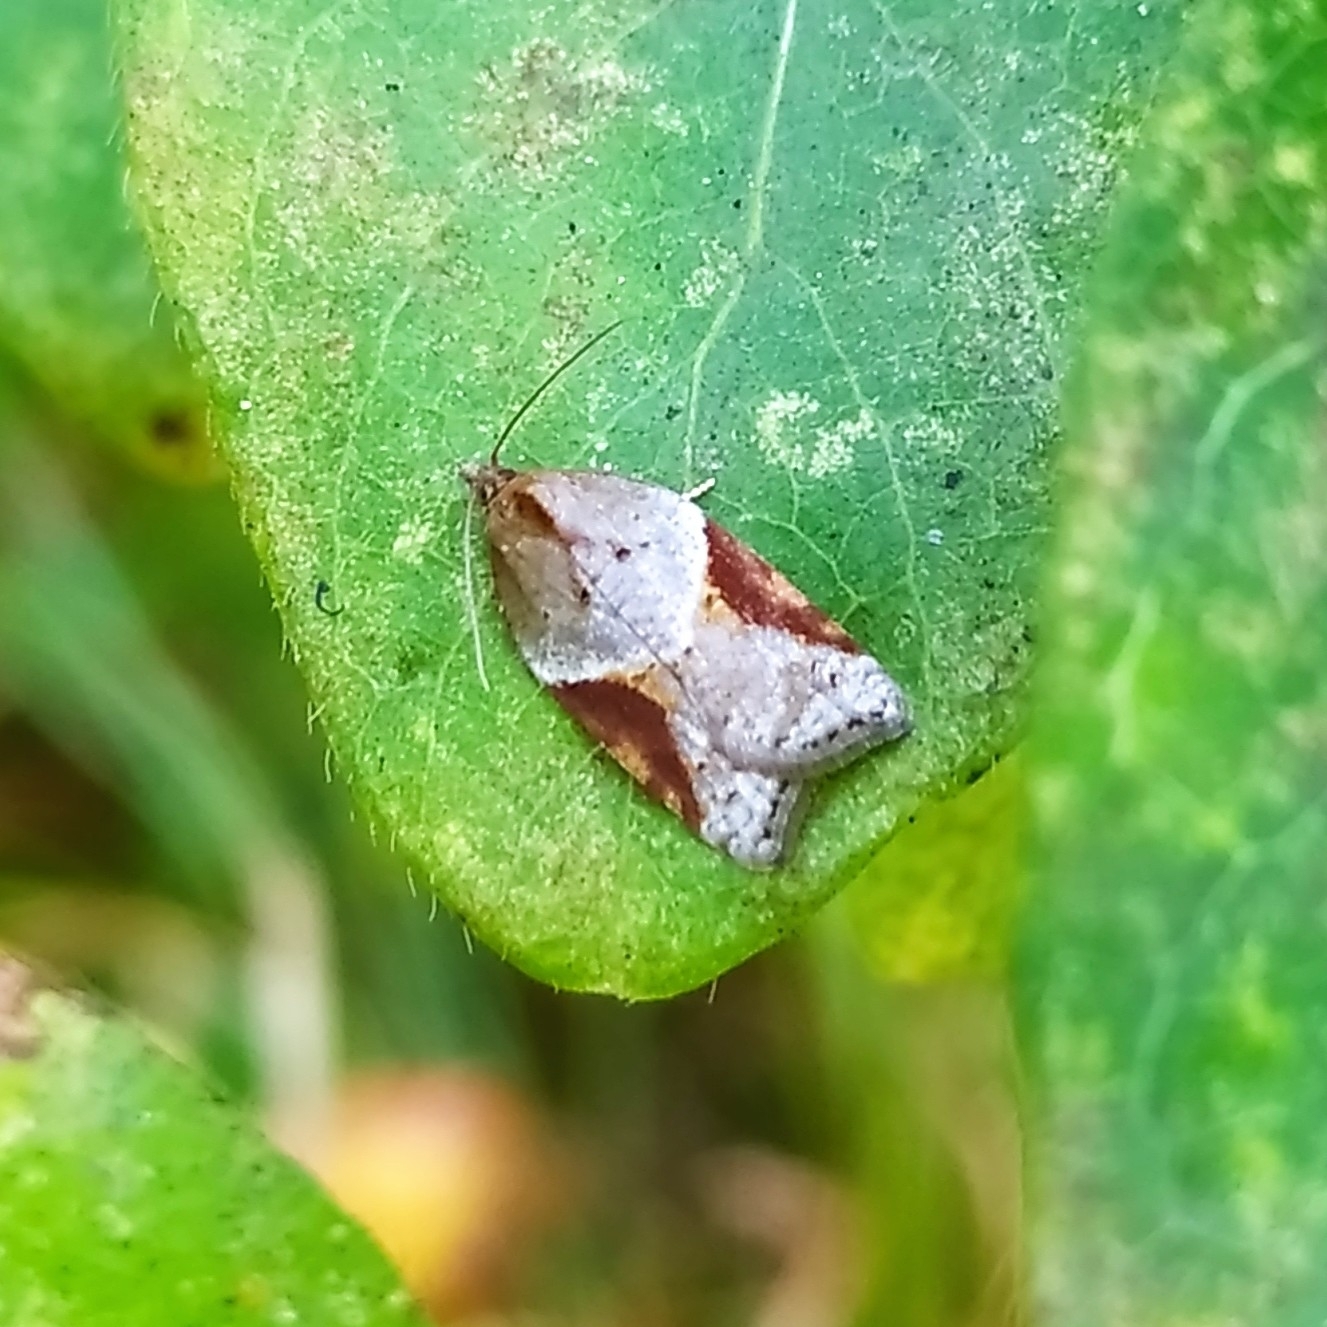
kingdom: Animalia
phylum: Arthropoda
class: Insecta
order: Lepidoptera
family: Tortricidae
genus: Acleris
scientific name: Acleris laterana
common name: Dark-triangle button
